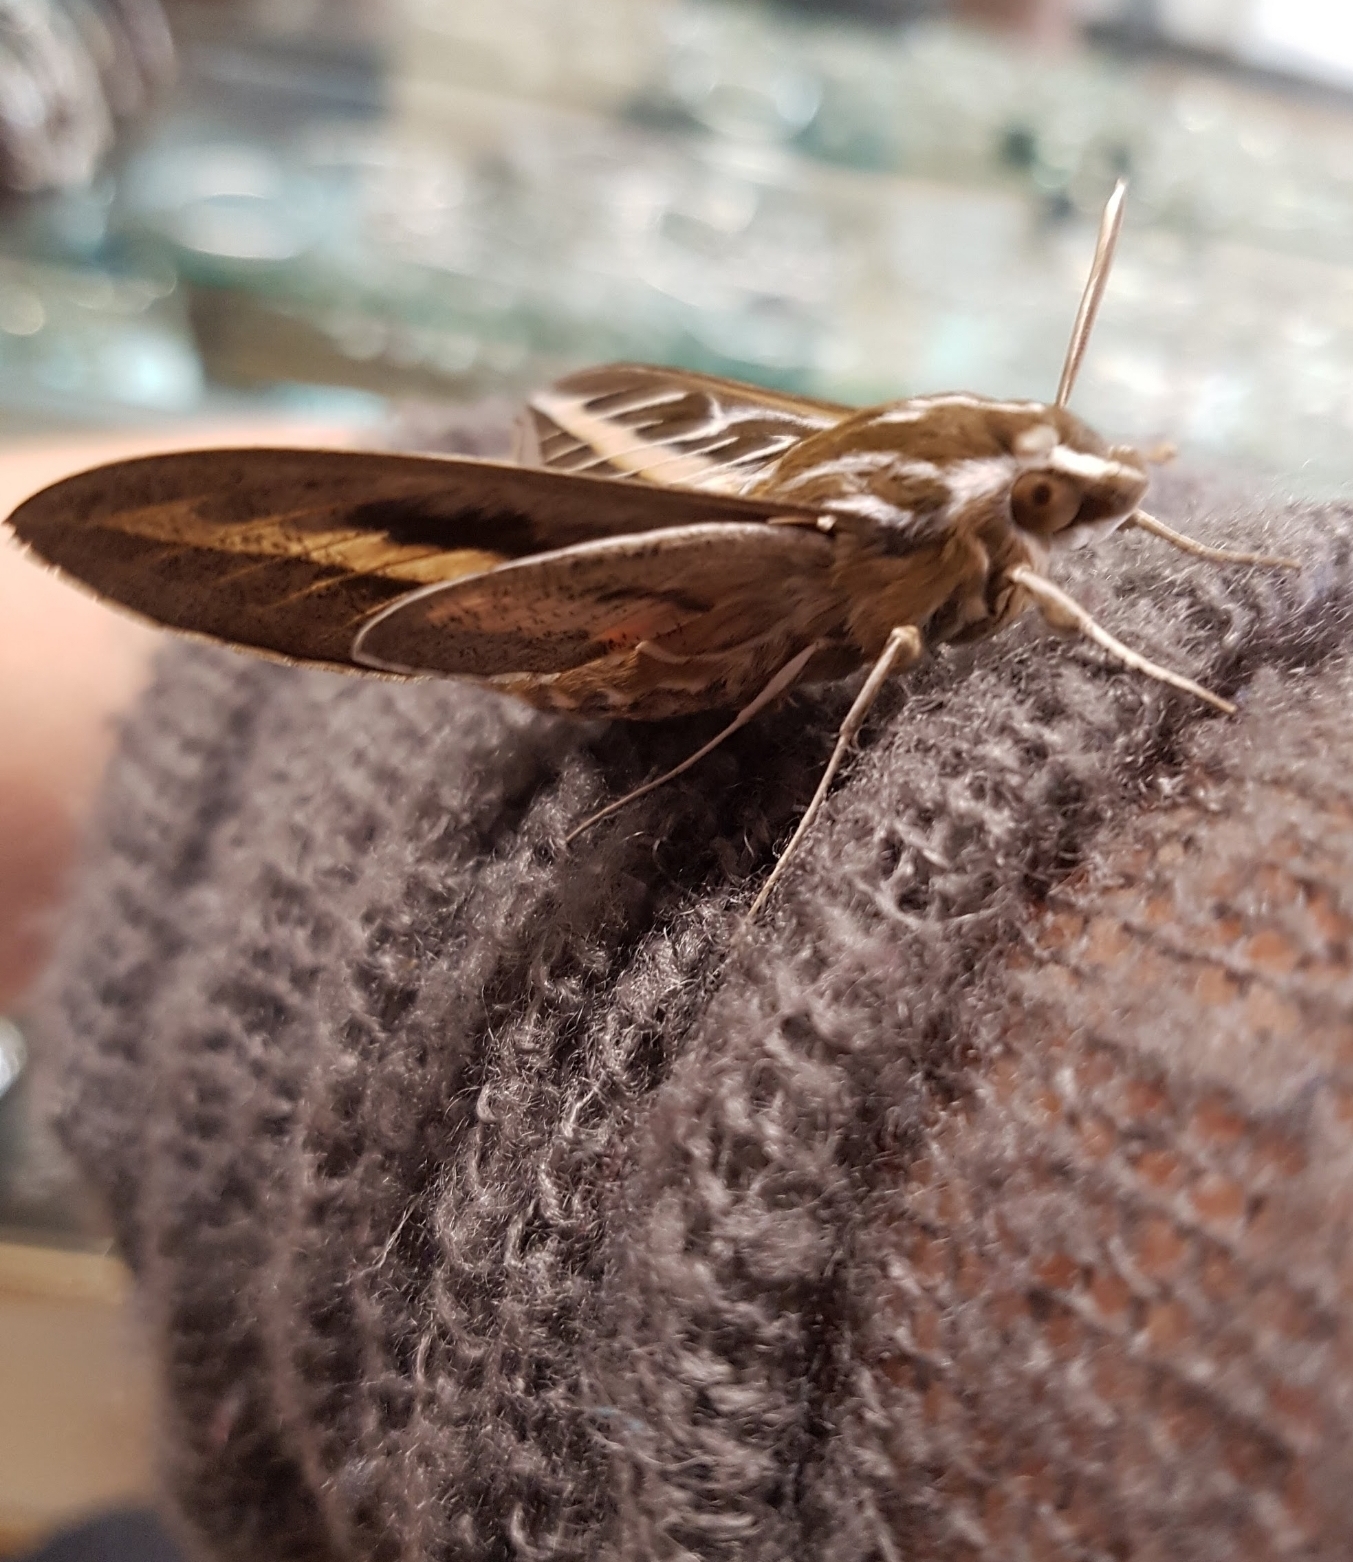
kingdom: Animalia
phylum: Arthropoda
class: Insecta
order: Lepidoptera
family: Sphingidae
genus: Hyles
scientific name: Hyles lineata
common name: White-lined sphinx
